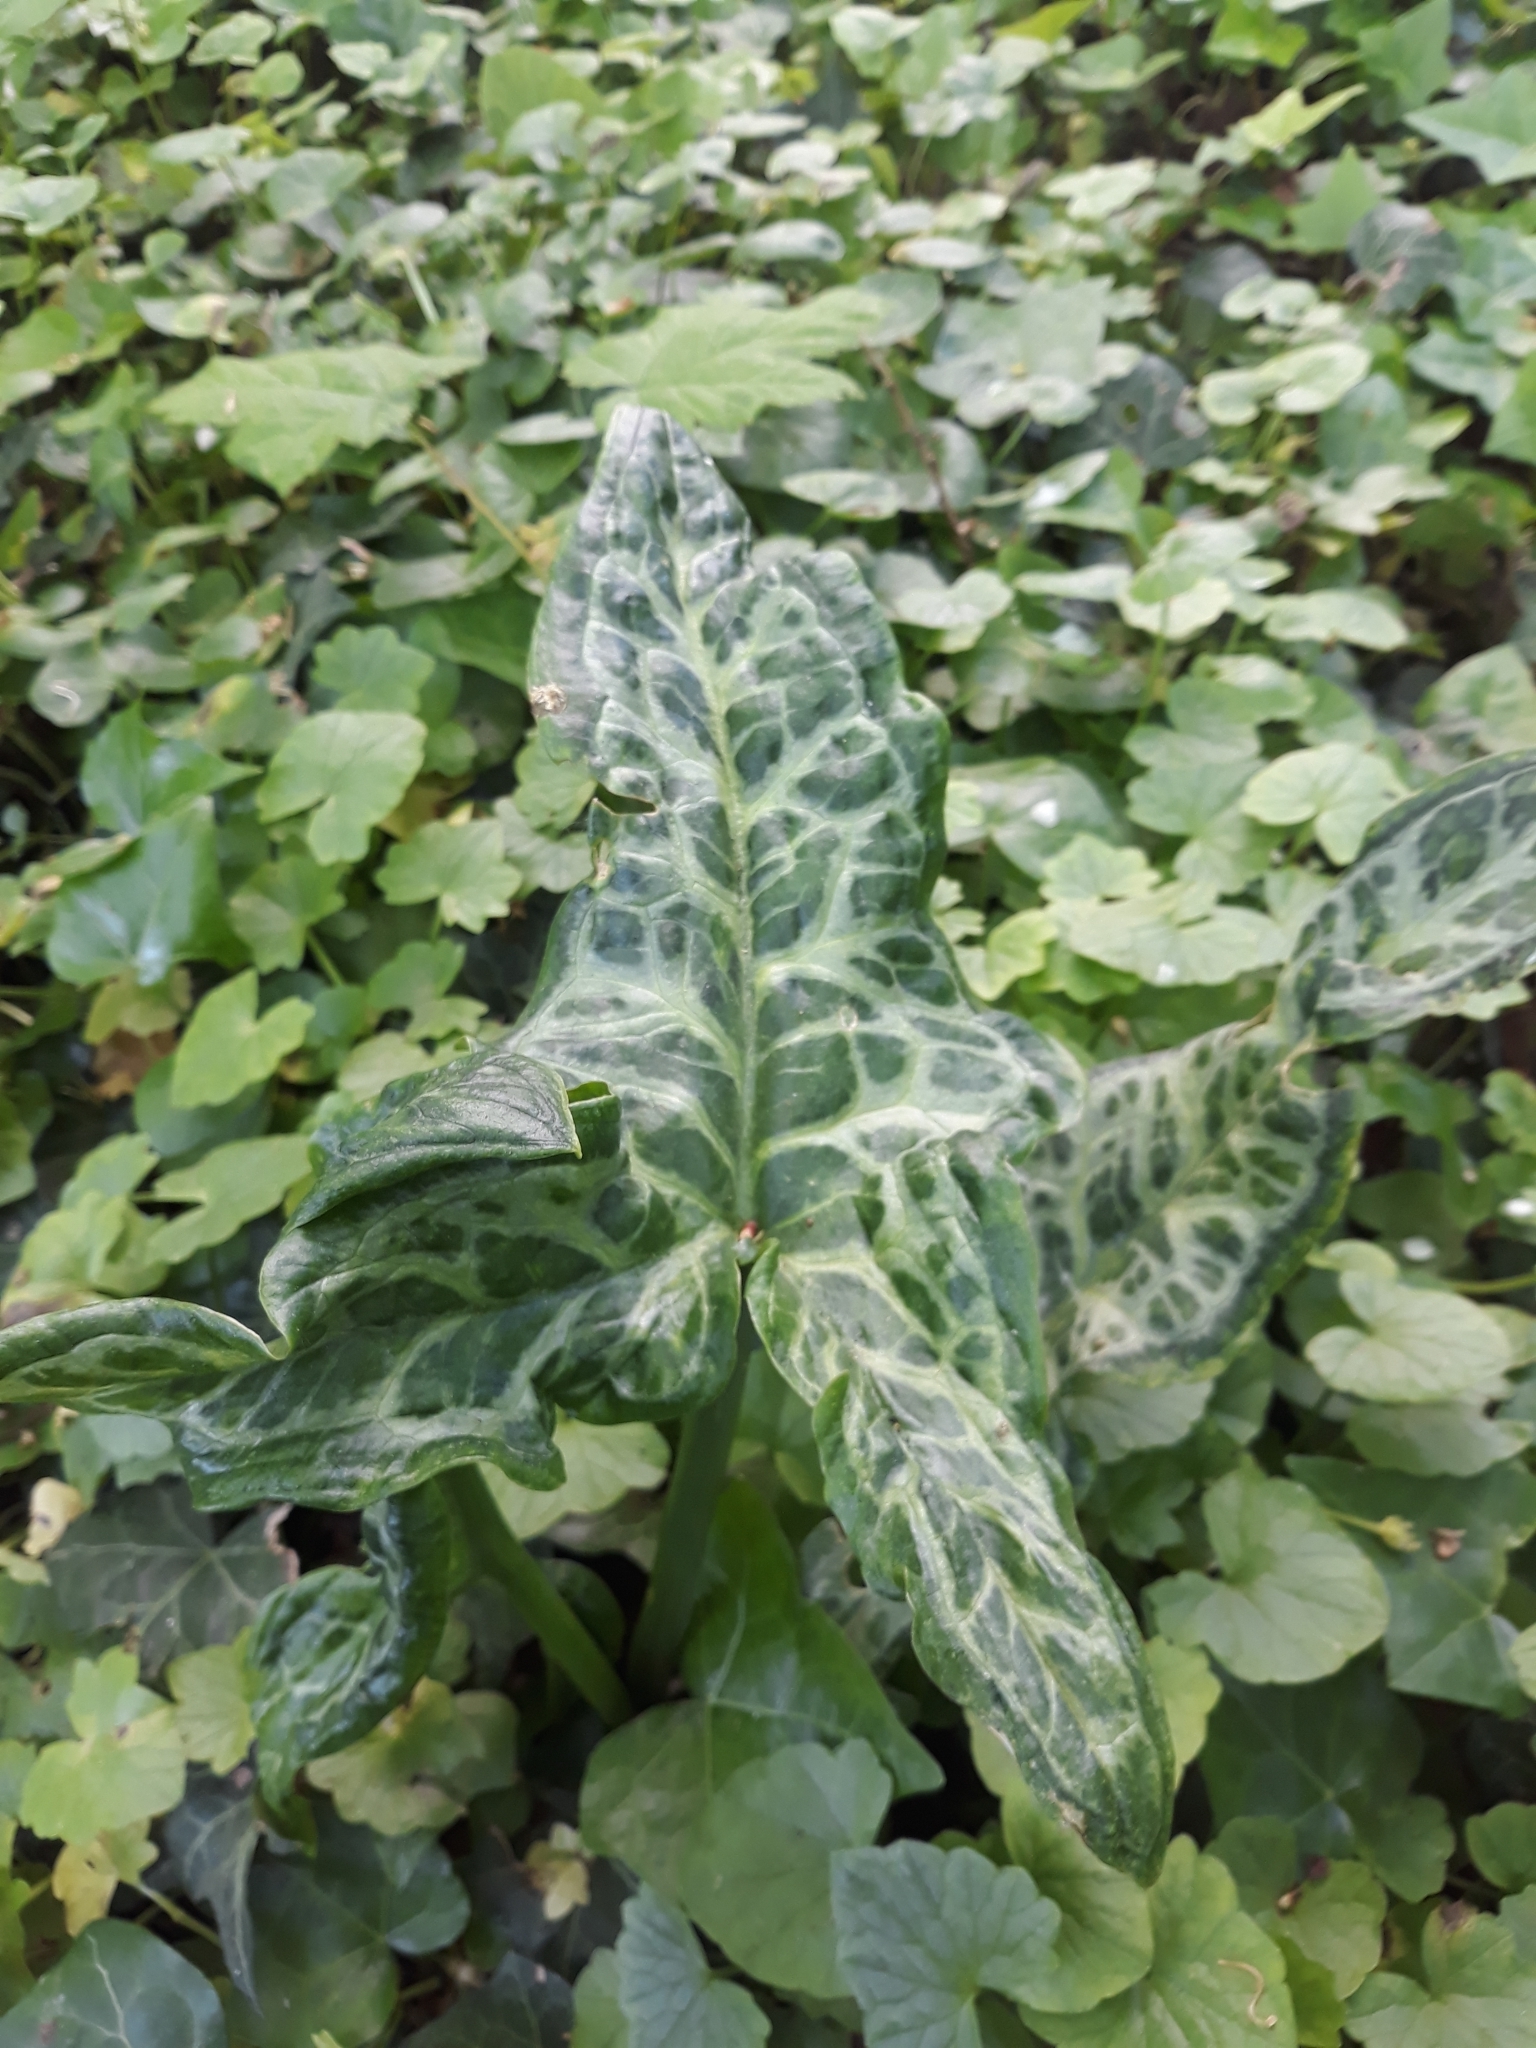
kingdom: Plantae
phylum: Tracheophyta
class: Liliopsida
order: Alismatales
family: Araceae
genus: Arum
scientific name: Arum italicum
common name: Italian lords-and-ladies
